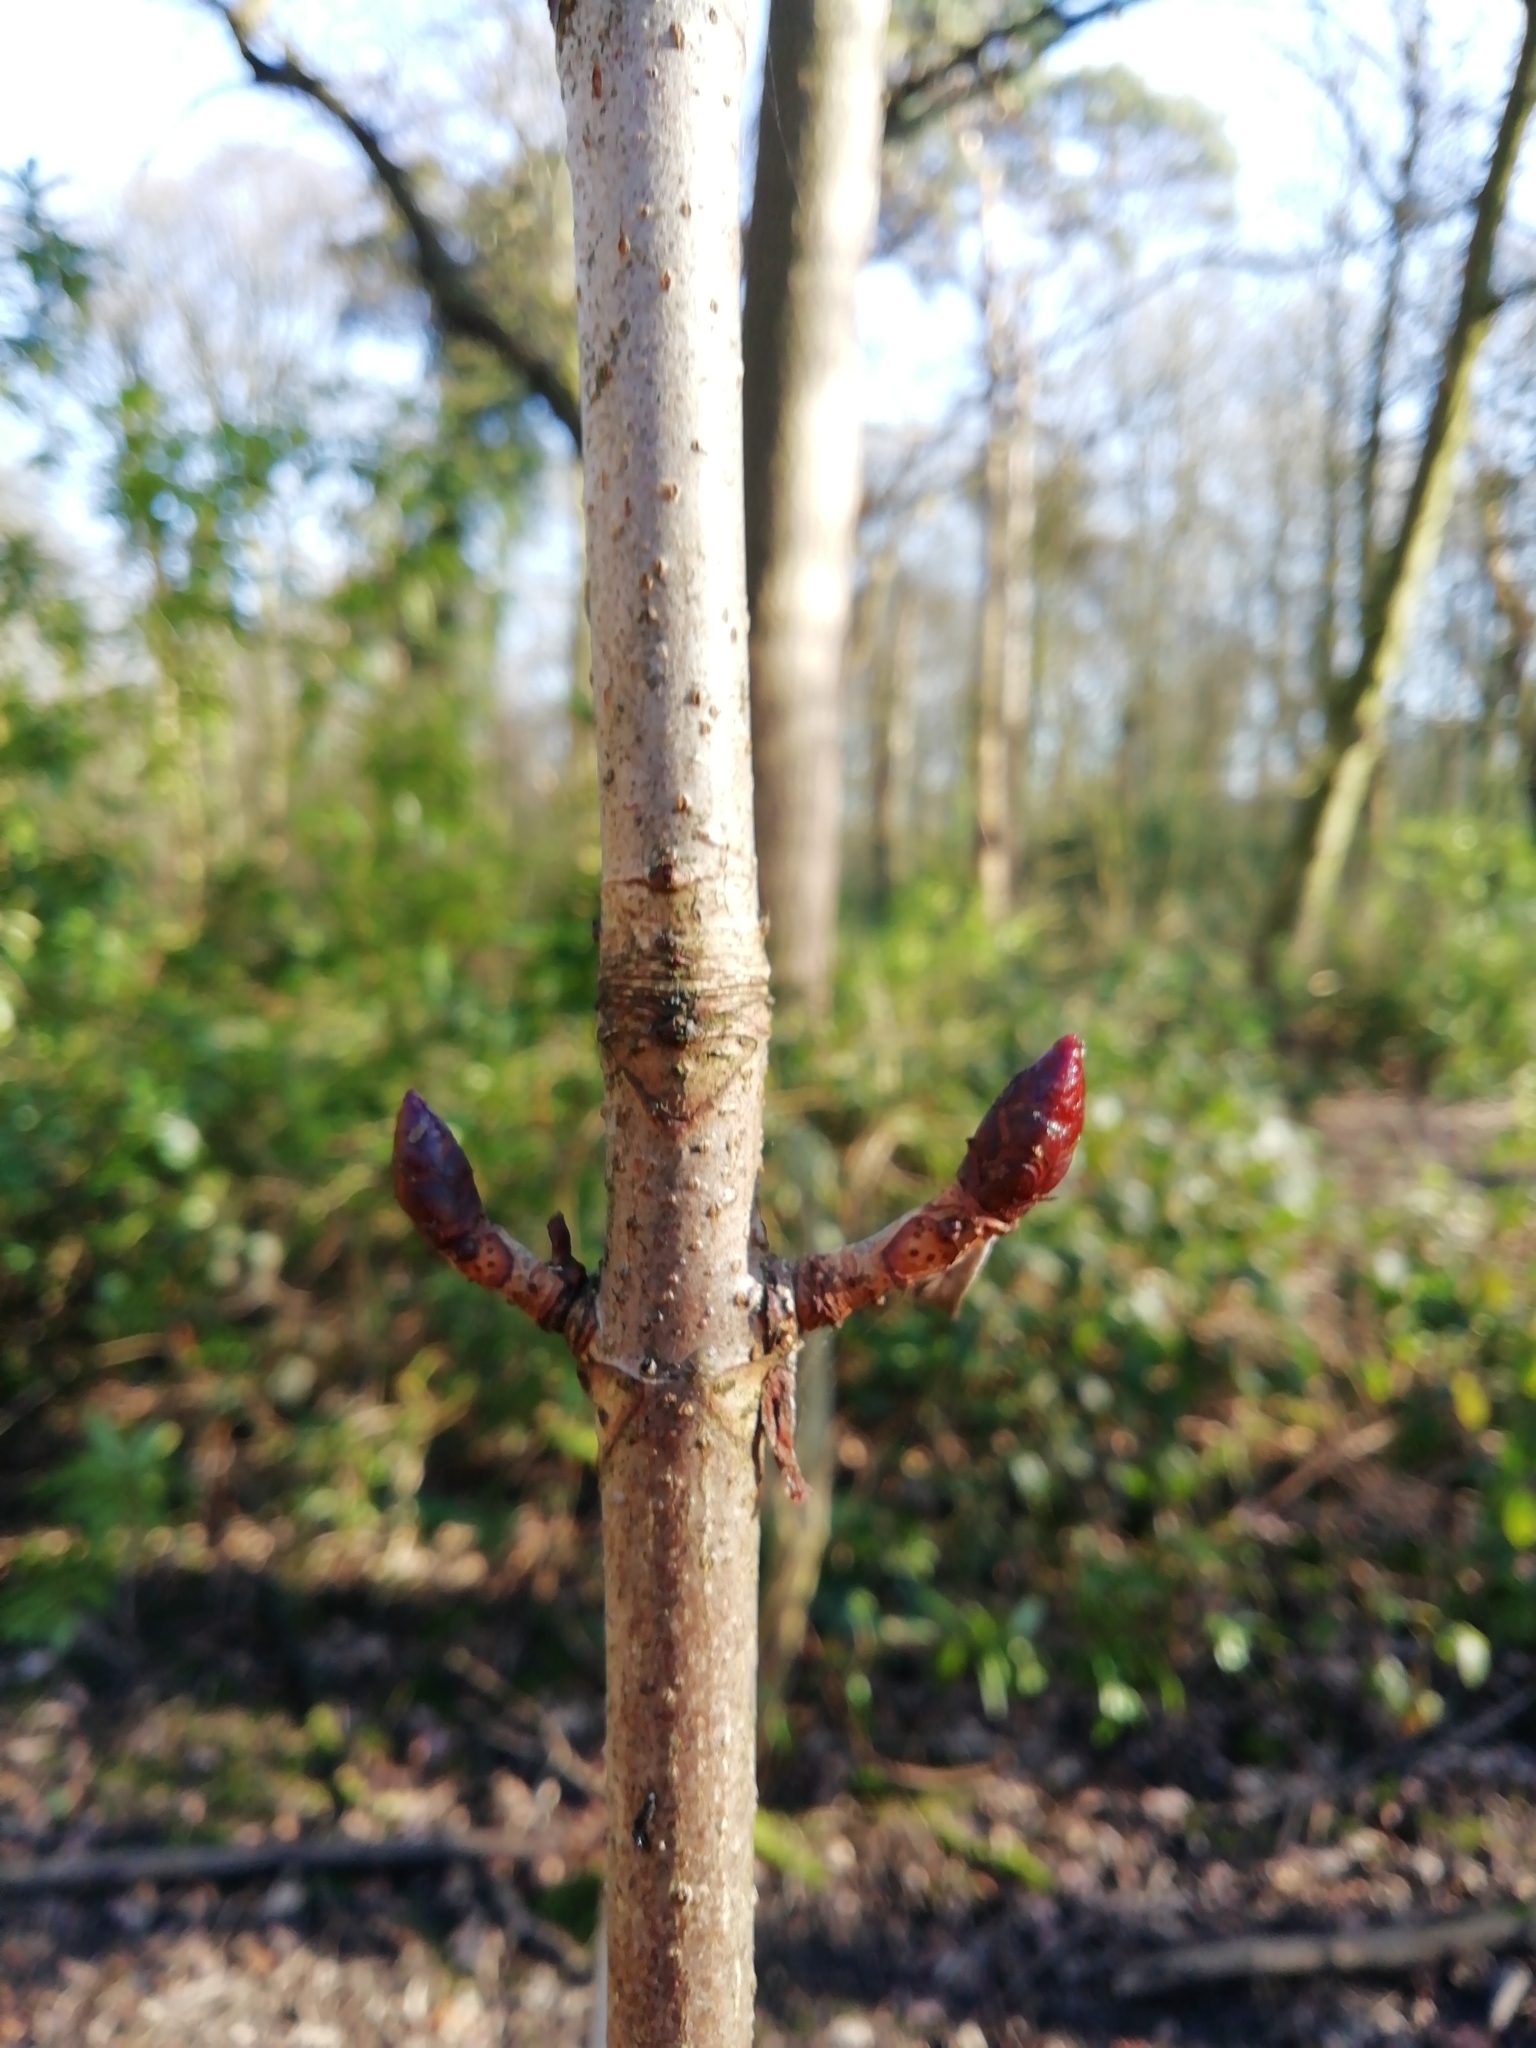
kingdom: Plantae
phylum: Tracheophyta
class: Magnoliopsida
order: Sapindales
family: Sapindaceae
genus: Aesculus
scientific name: Aesculus hippocastanum
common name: Horse-chestnut
